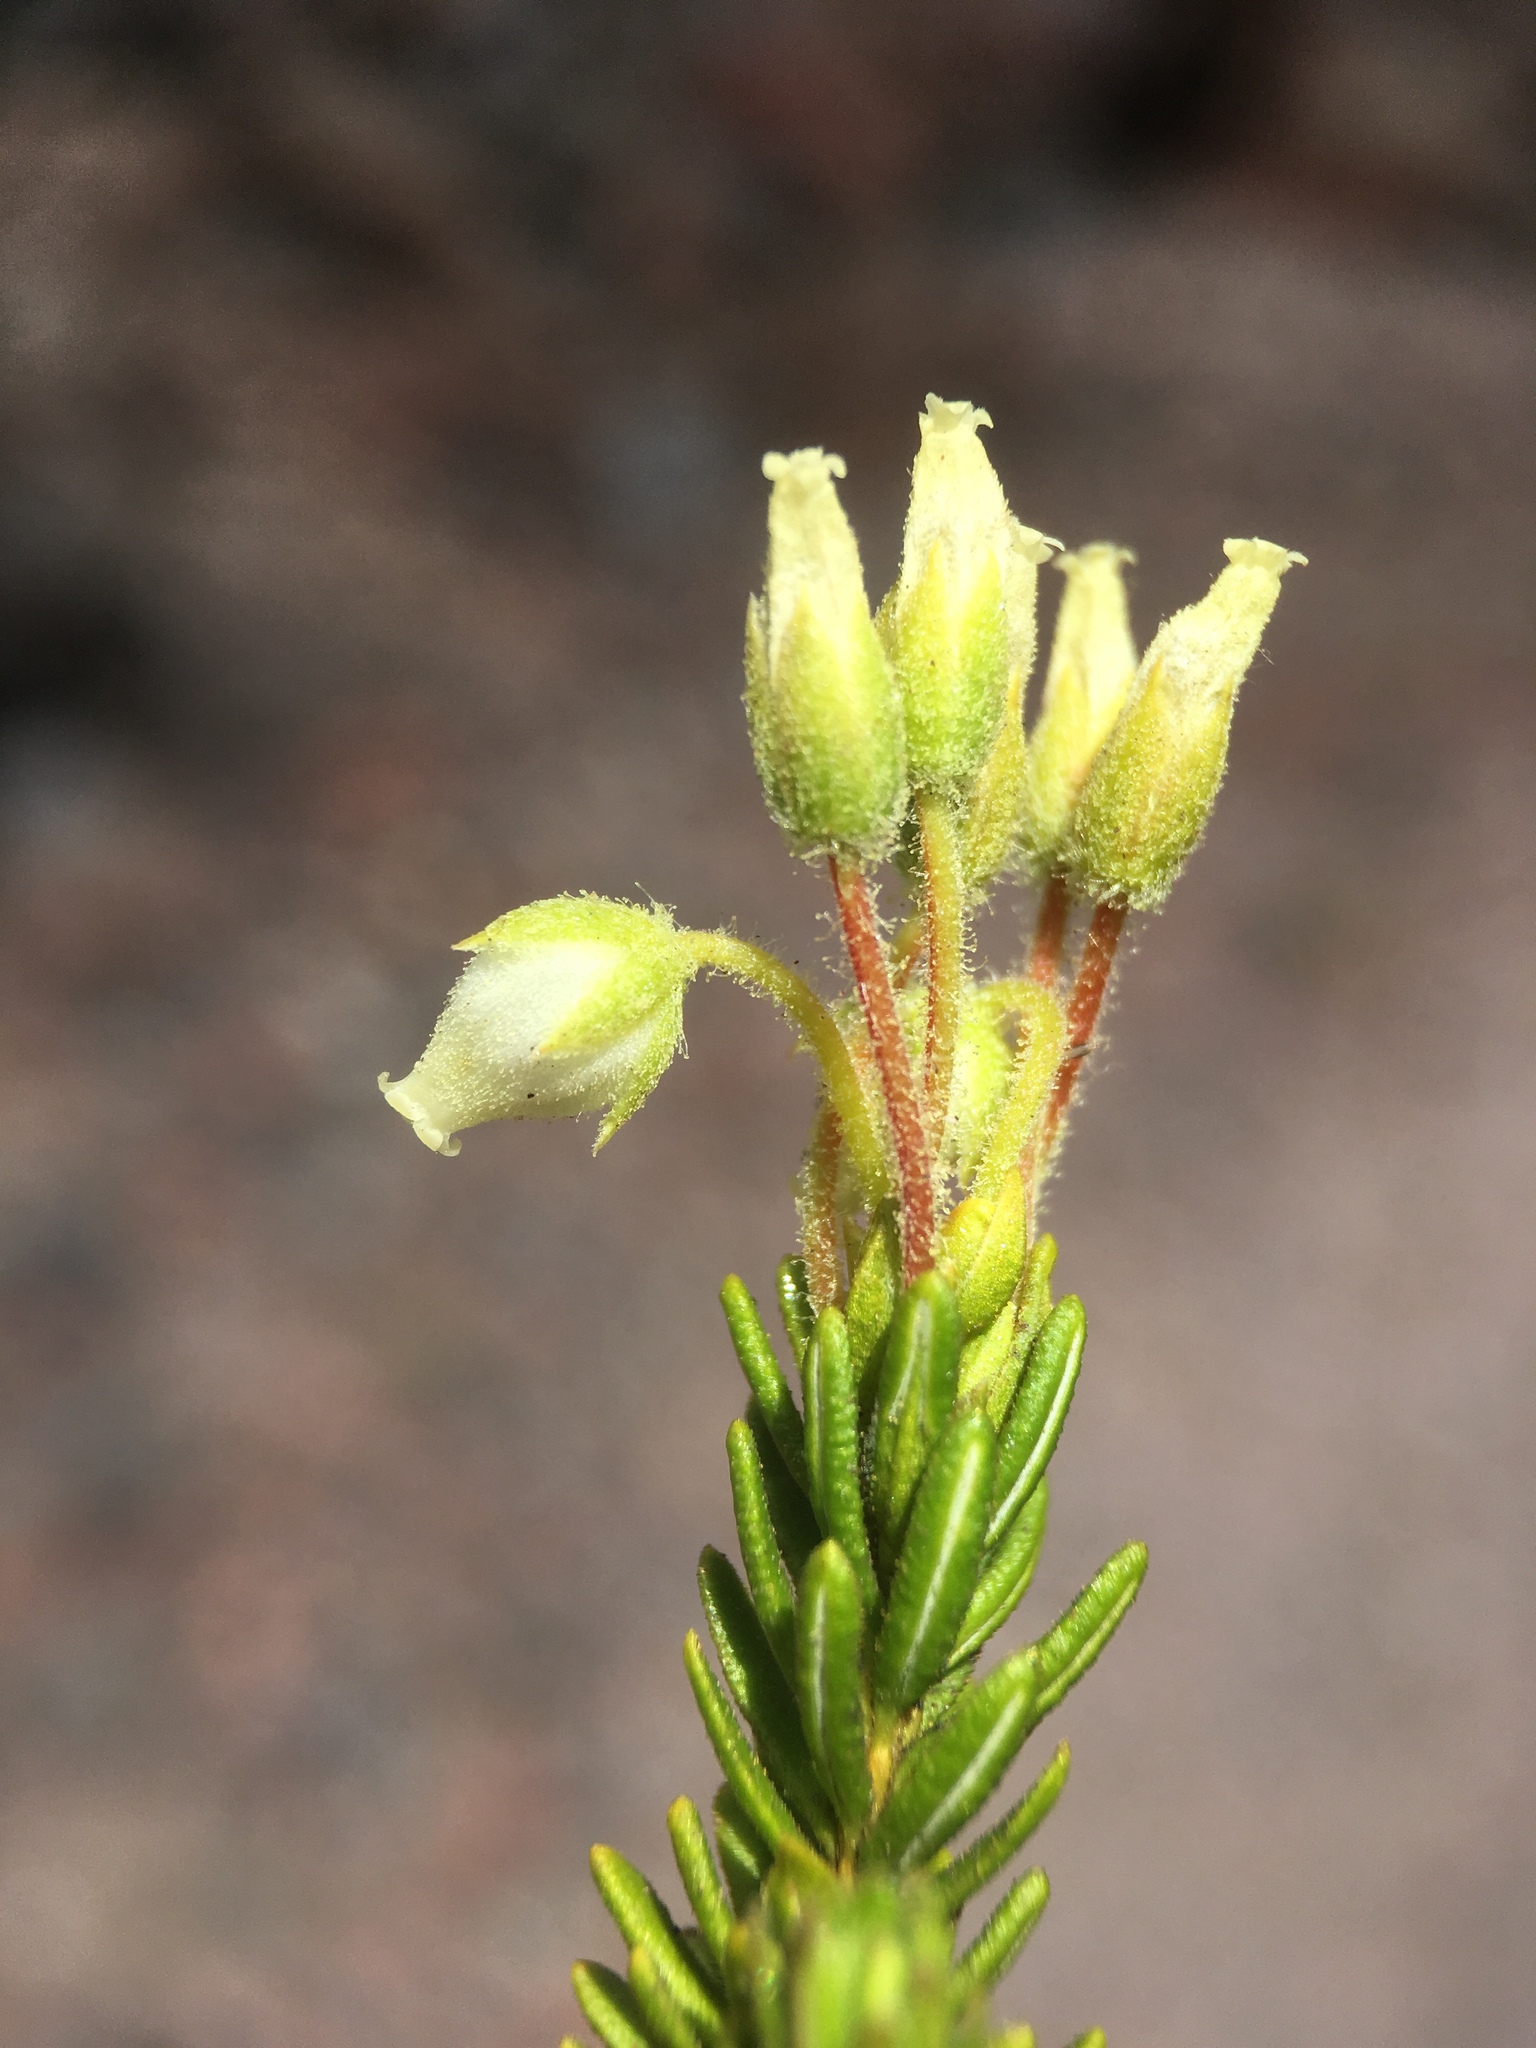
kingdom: Plantae
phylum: Tracheophyta
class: Magnoliopsida
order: Ericales
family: Ericaceae
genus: Phyllodoce
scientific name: Phyllodoce glanduliflora
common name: Cream mountain heather
